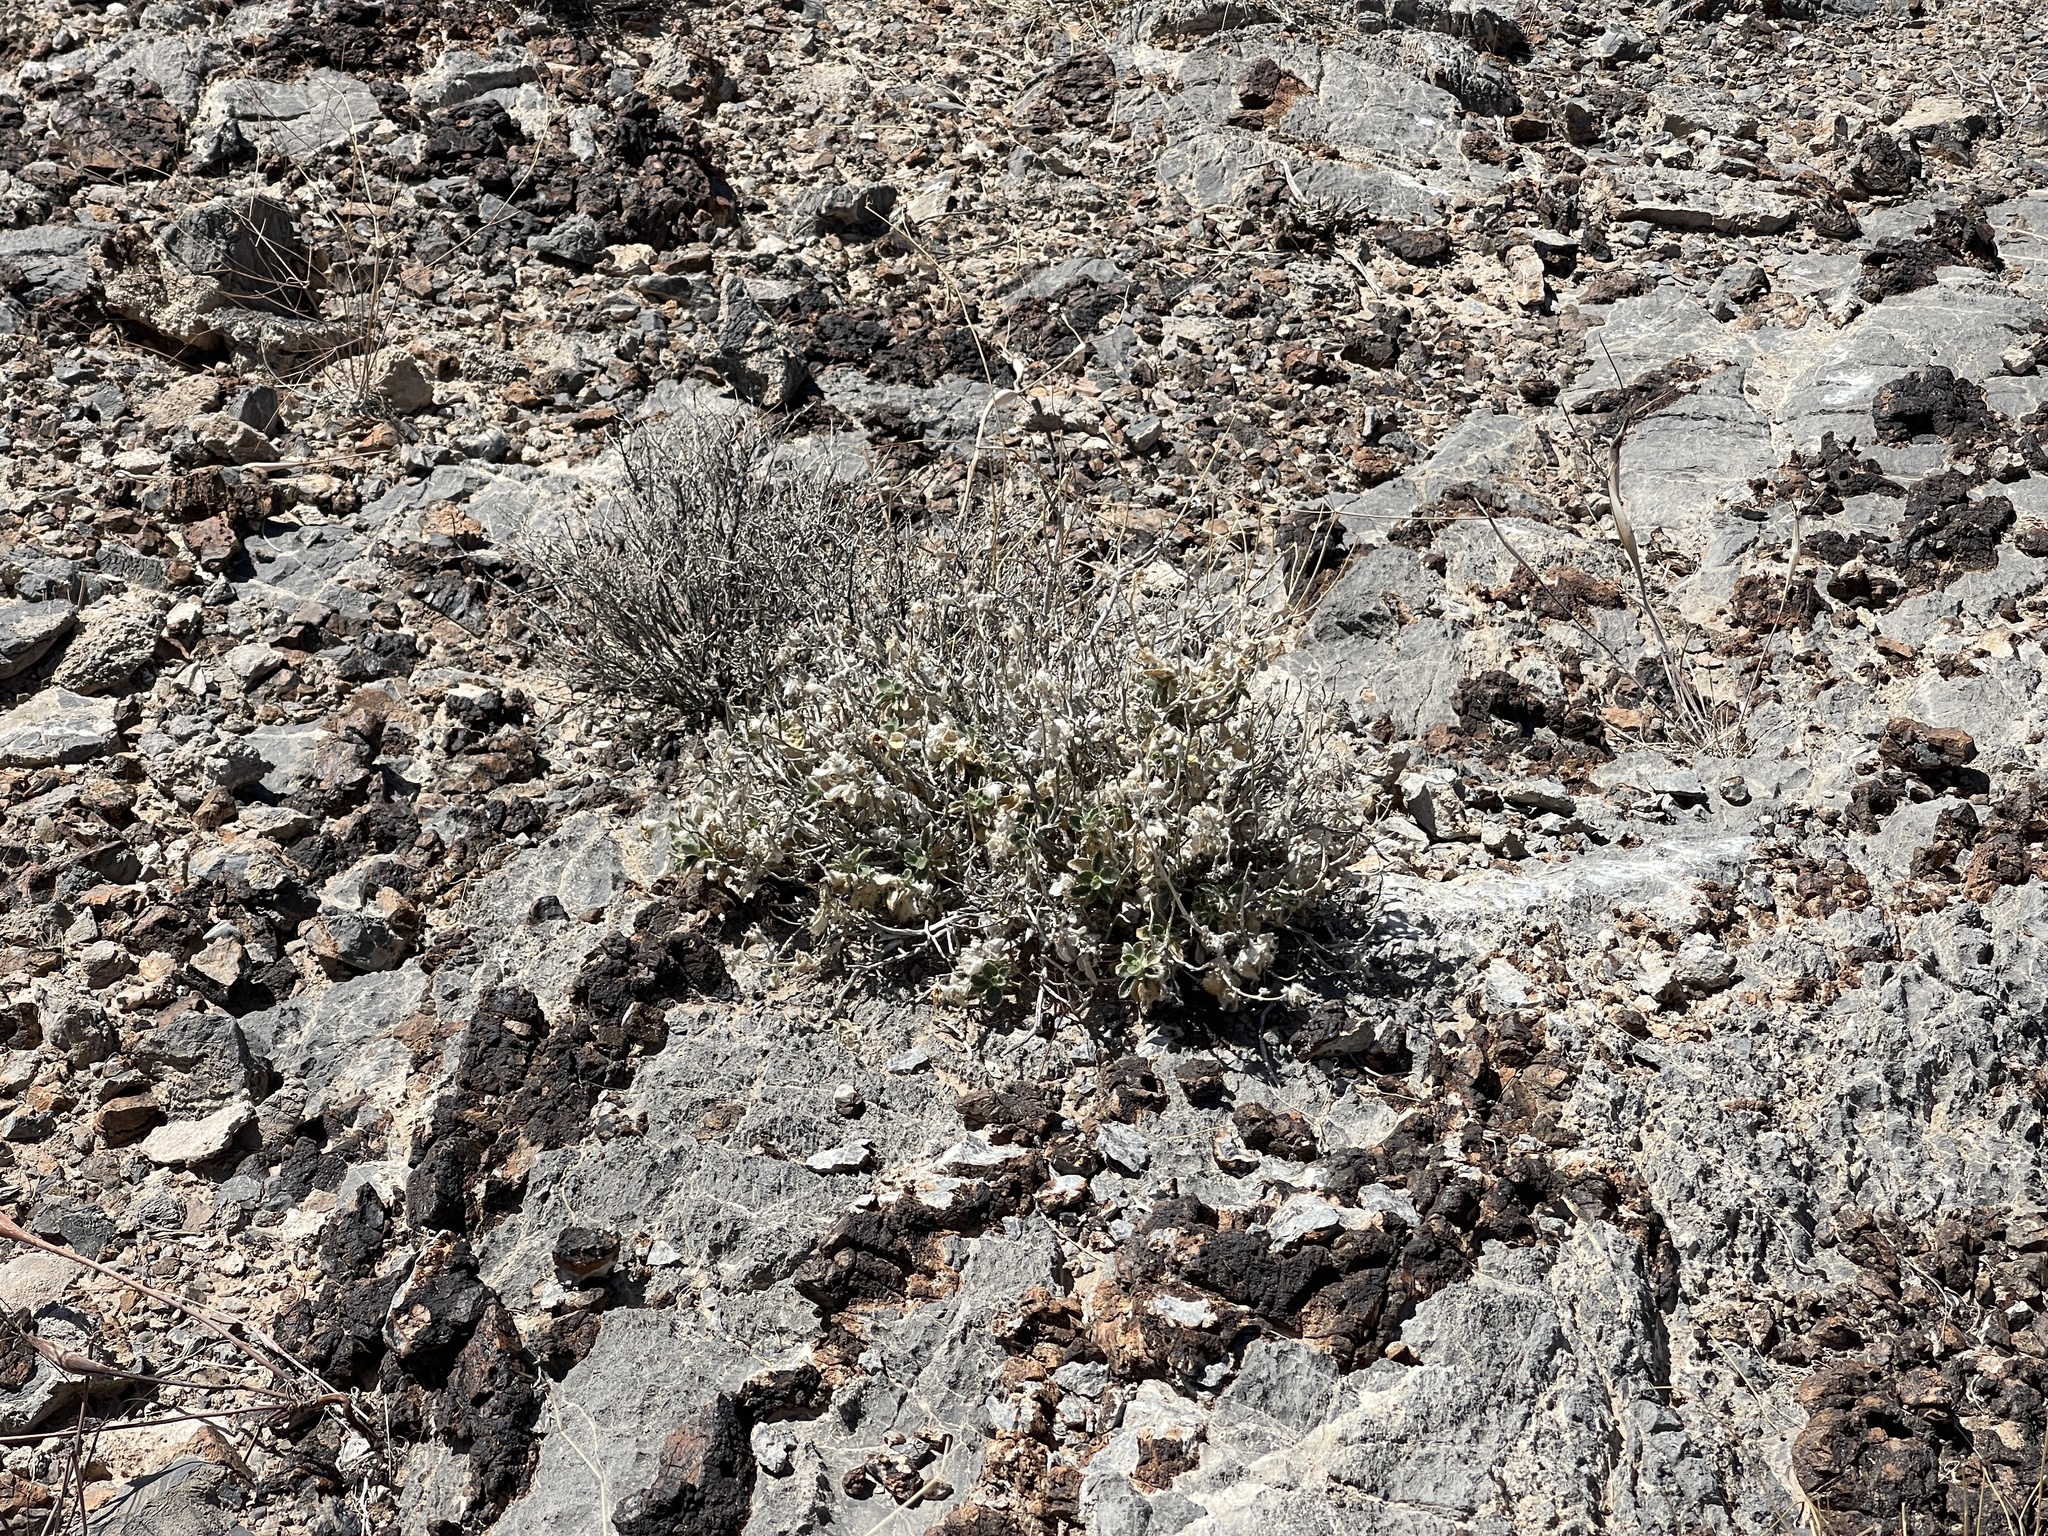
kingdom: Plantae
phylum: Tracheophyta
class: Magnoliopsida
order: Cornales
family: Loasaceae
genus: Eucnide
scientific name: Eucnide urens
